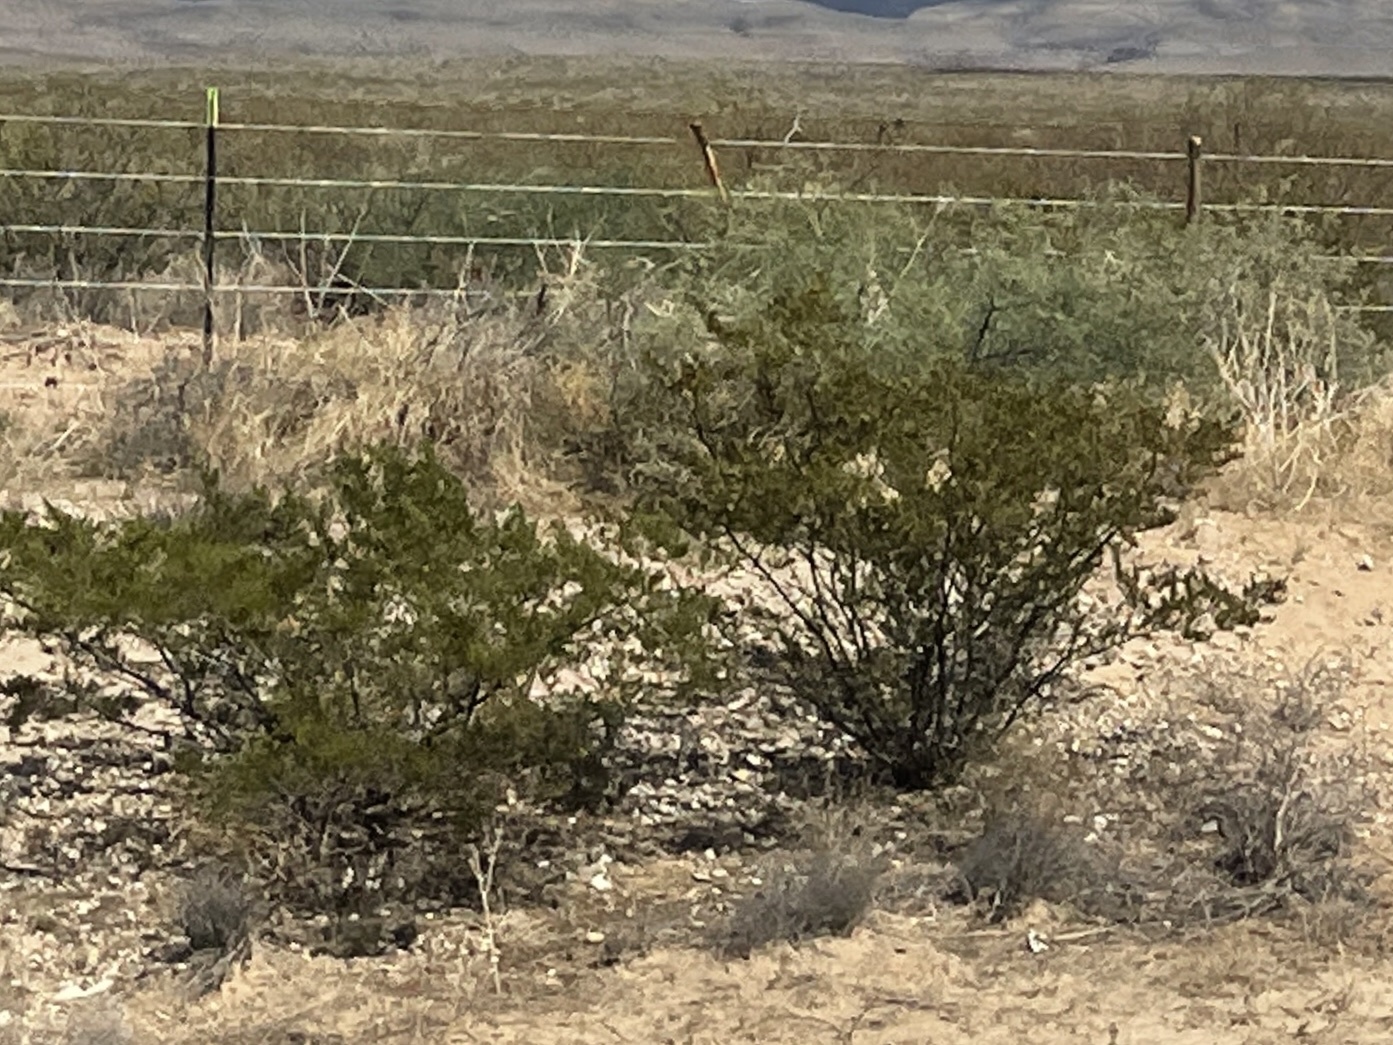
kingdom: Plantae
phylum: Tracheophyta
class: Magnoliopsida
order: Zygophyllales
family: Zygophyllaceae
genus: Larrea
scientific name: Larrea tridentata
